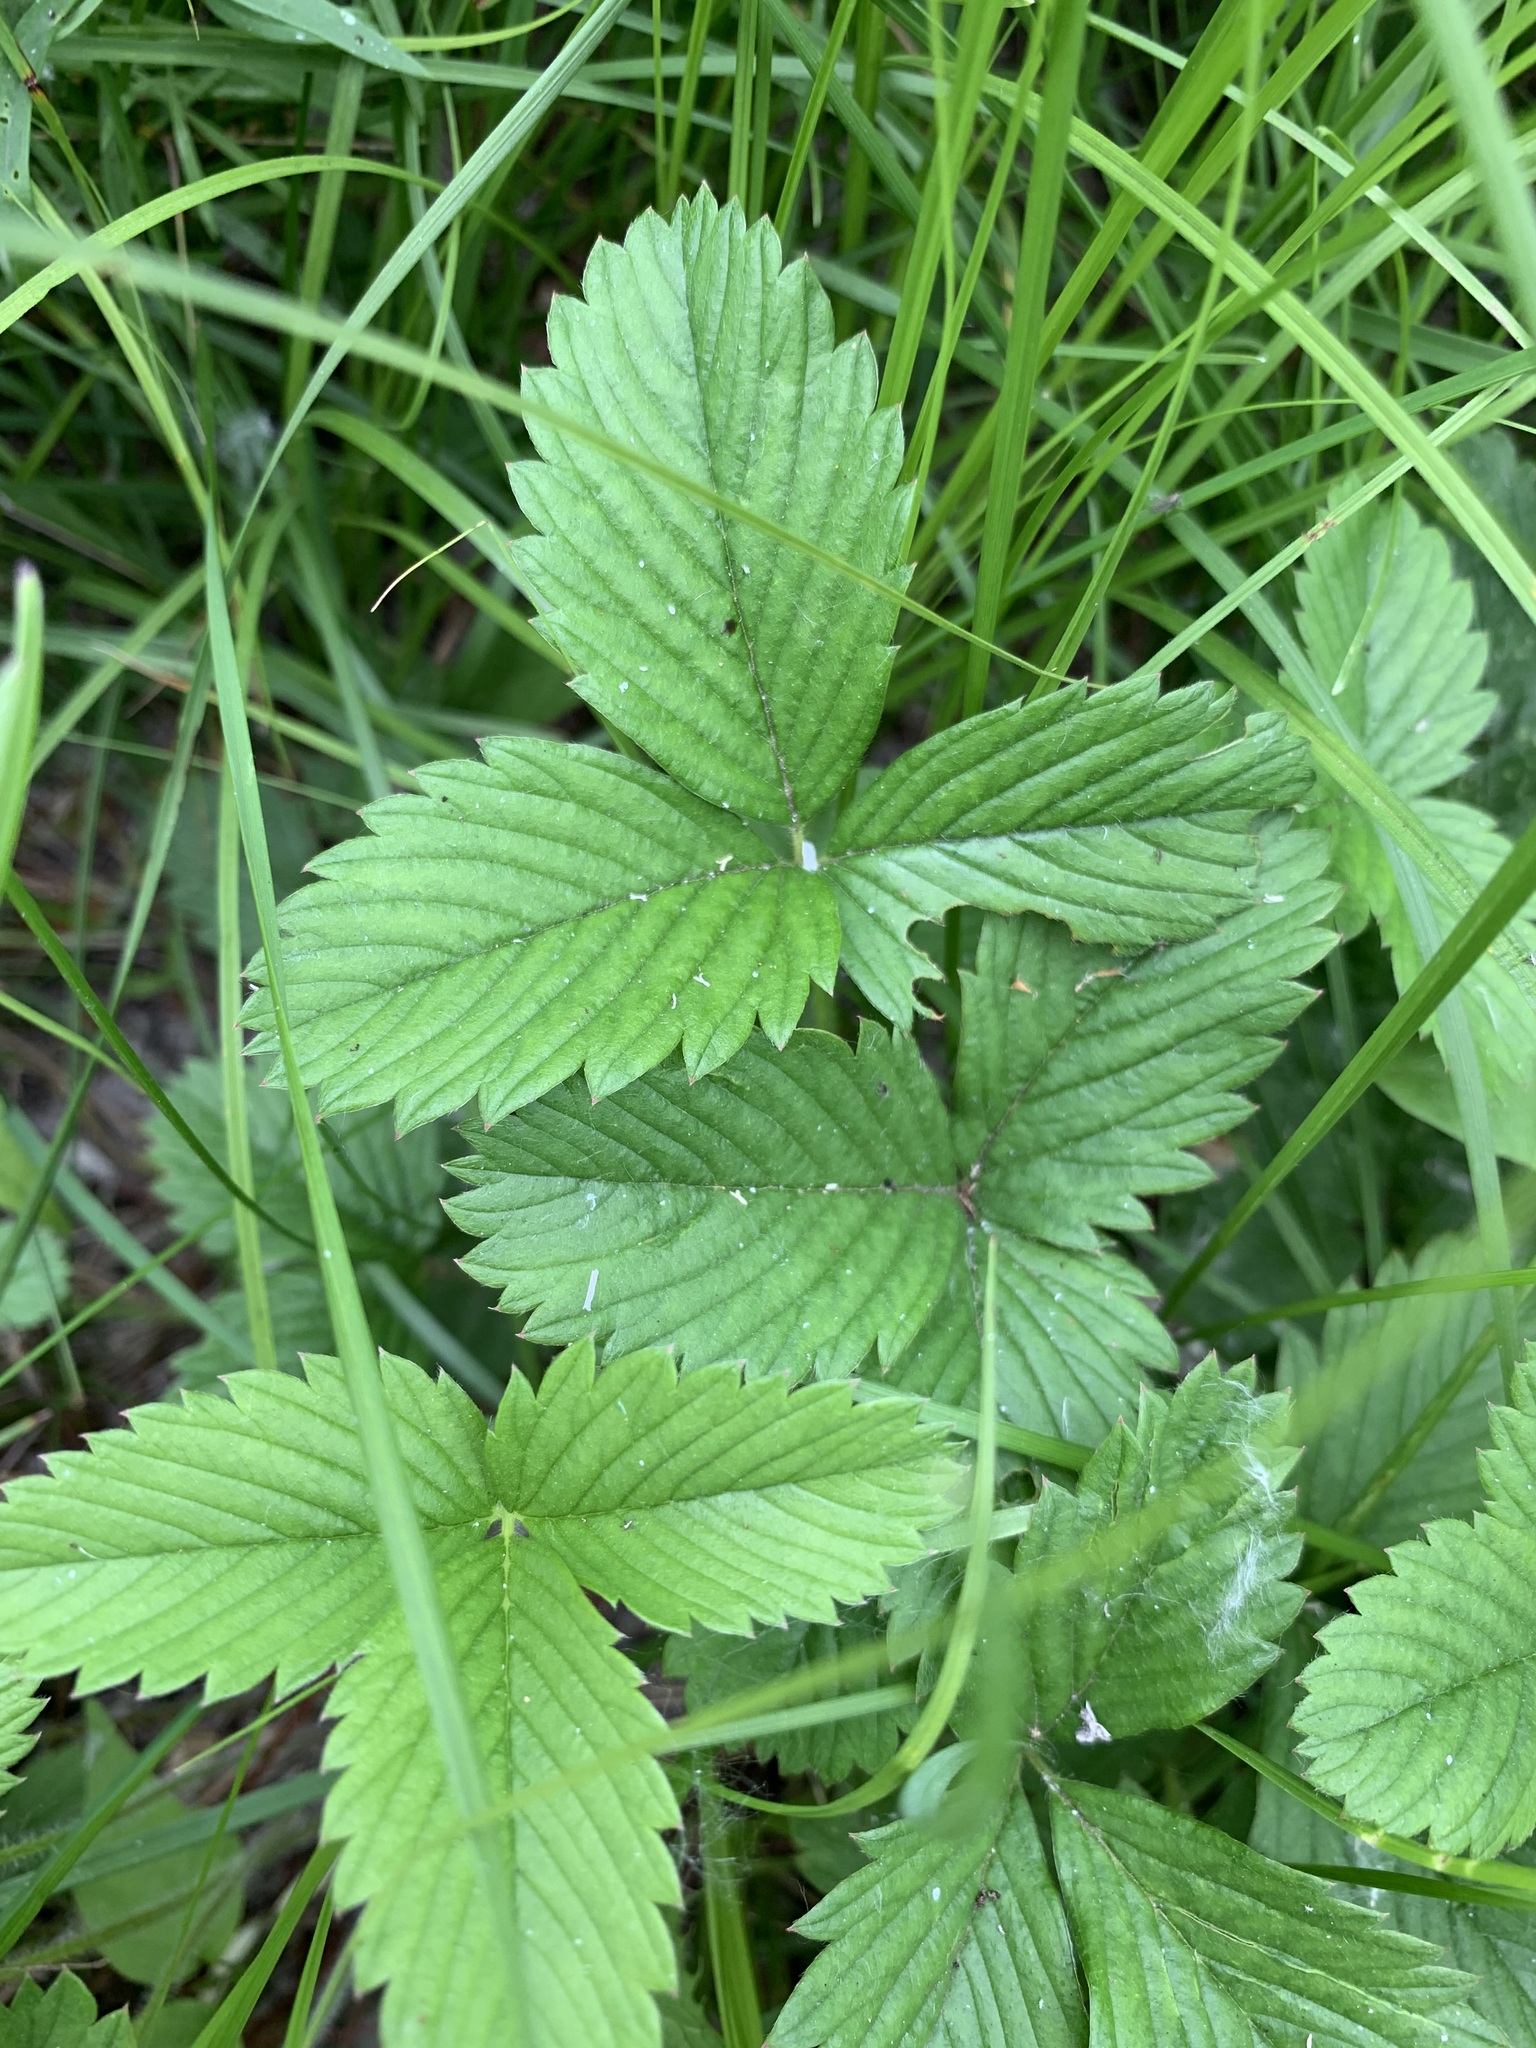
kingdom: Plantae
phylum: Tracheophyta
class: Magnoliopsida
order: Rosales
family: Rosaceae
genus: Fragaria
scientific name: Fragaria viridis
